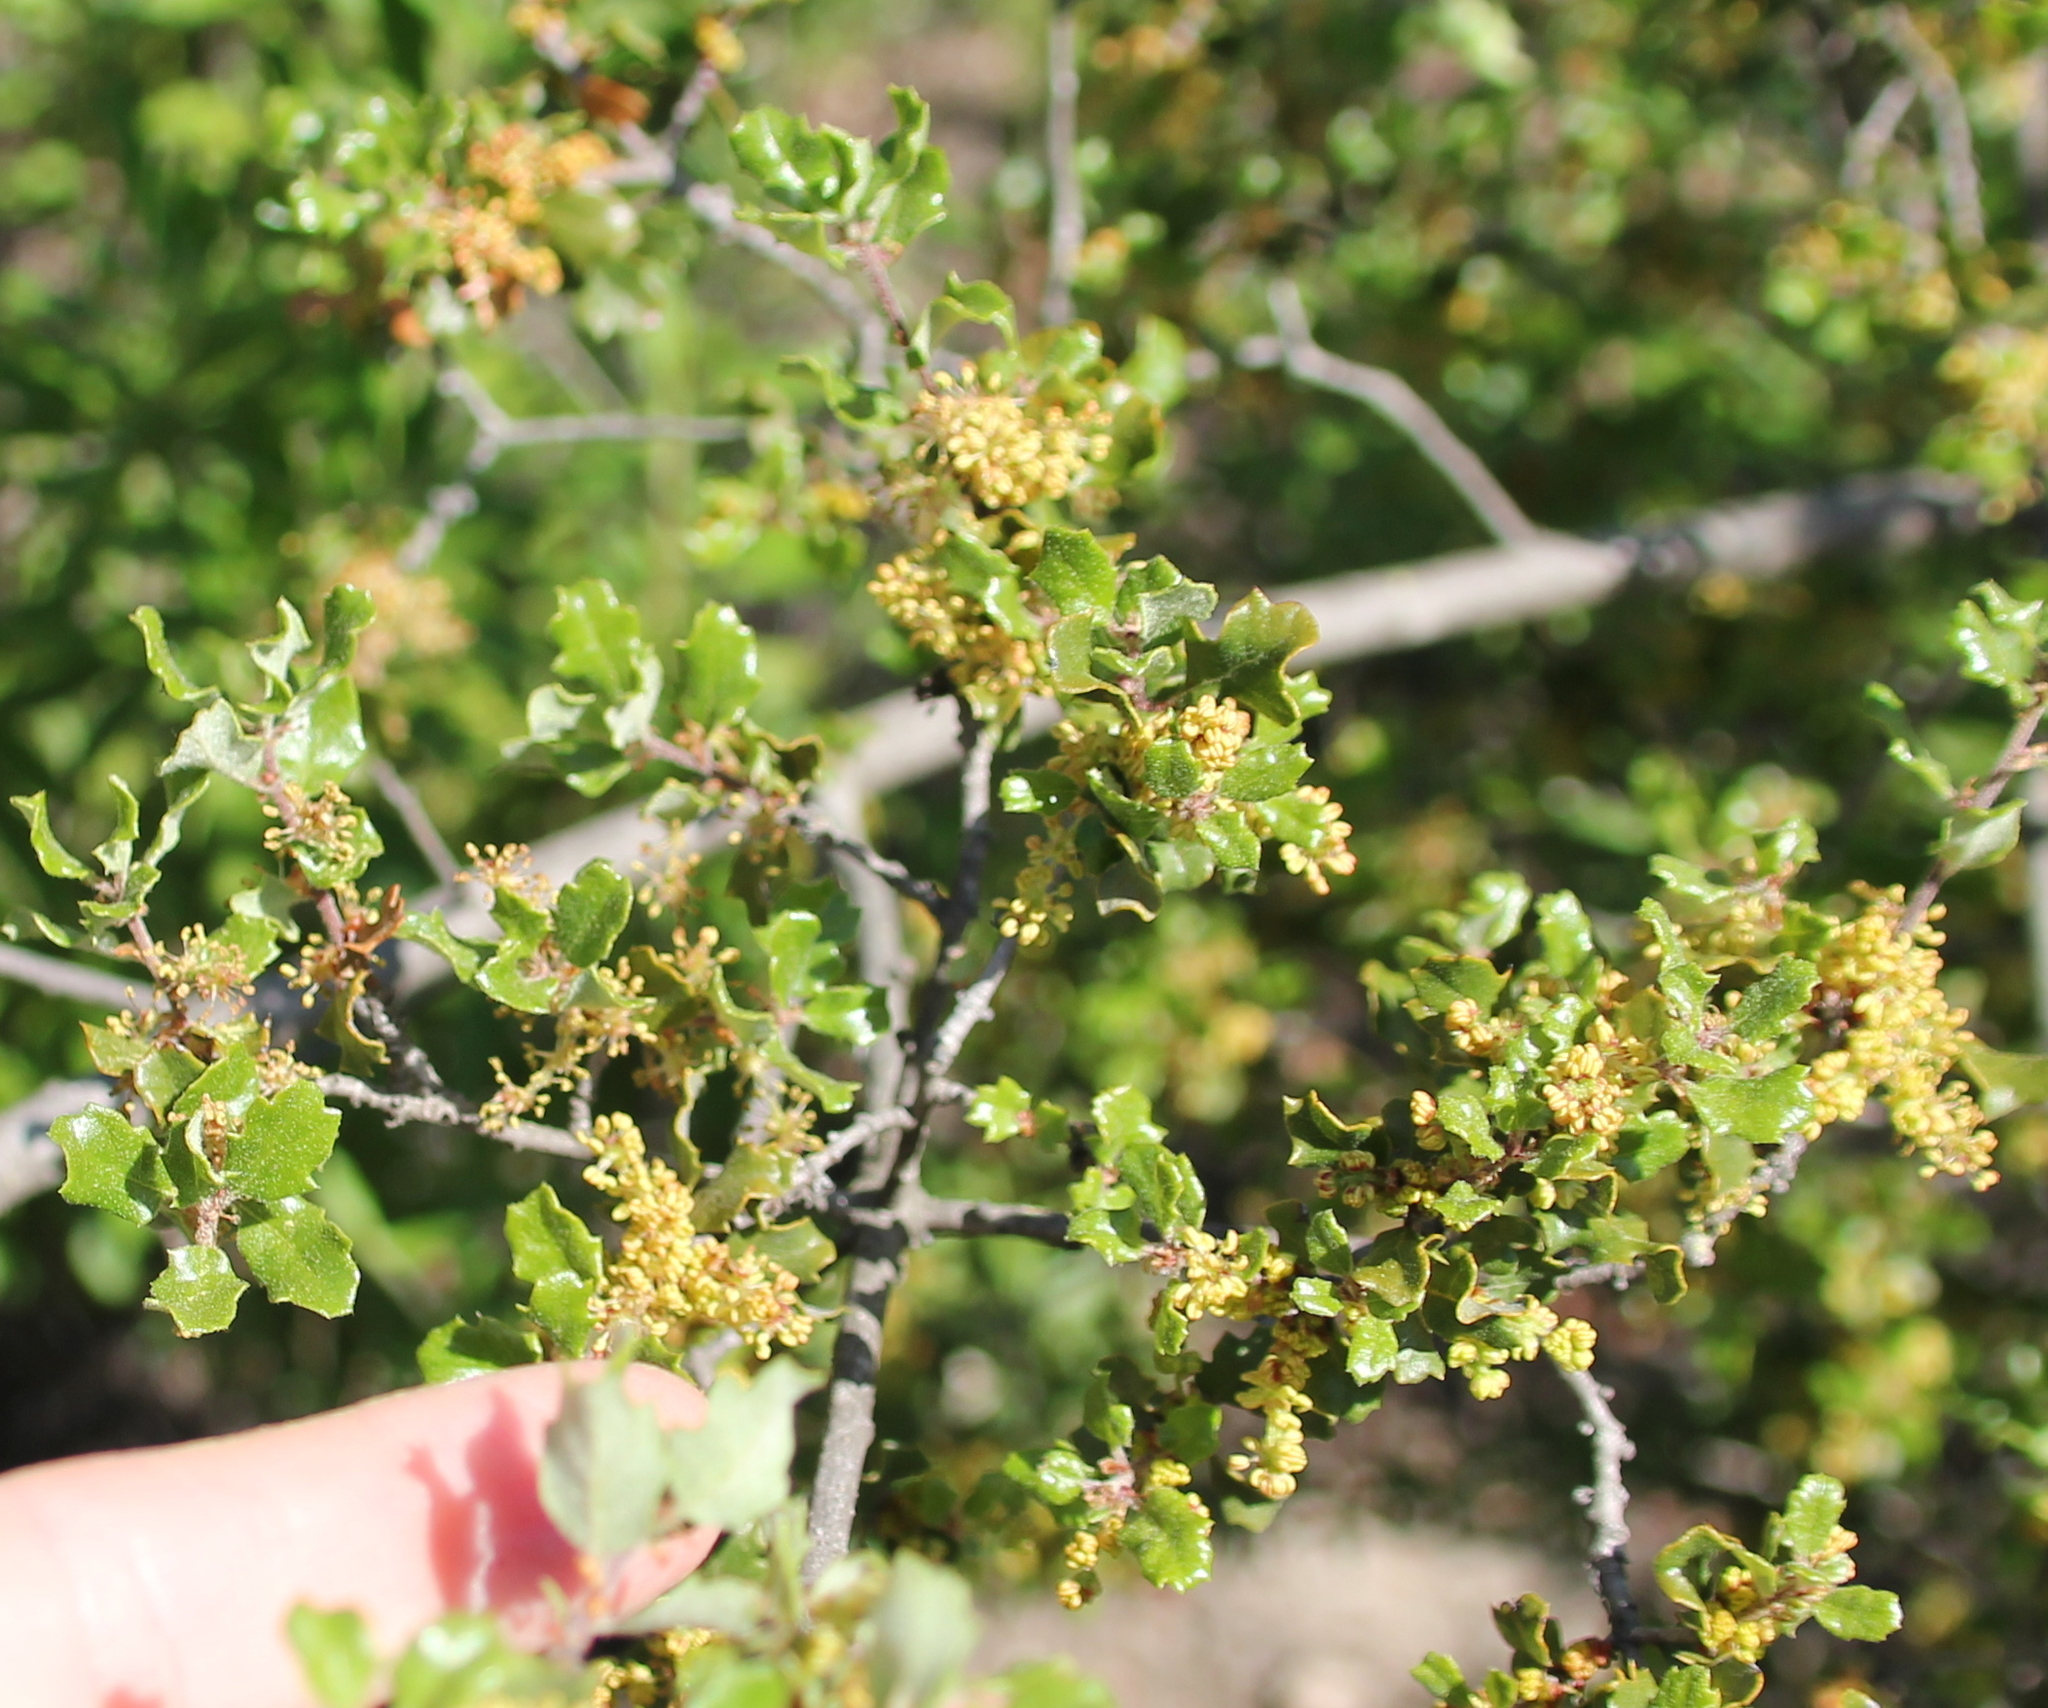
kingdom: Plantae
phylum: Tracheophyta
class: Magnoliopsida
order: Fagales
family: Fagaceae
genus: Quercus
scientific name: Quercus dumosa
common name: Coastal sage scrub oak
